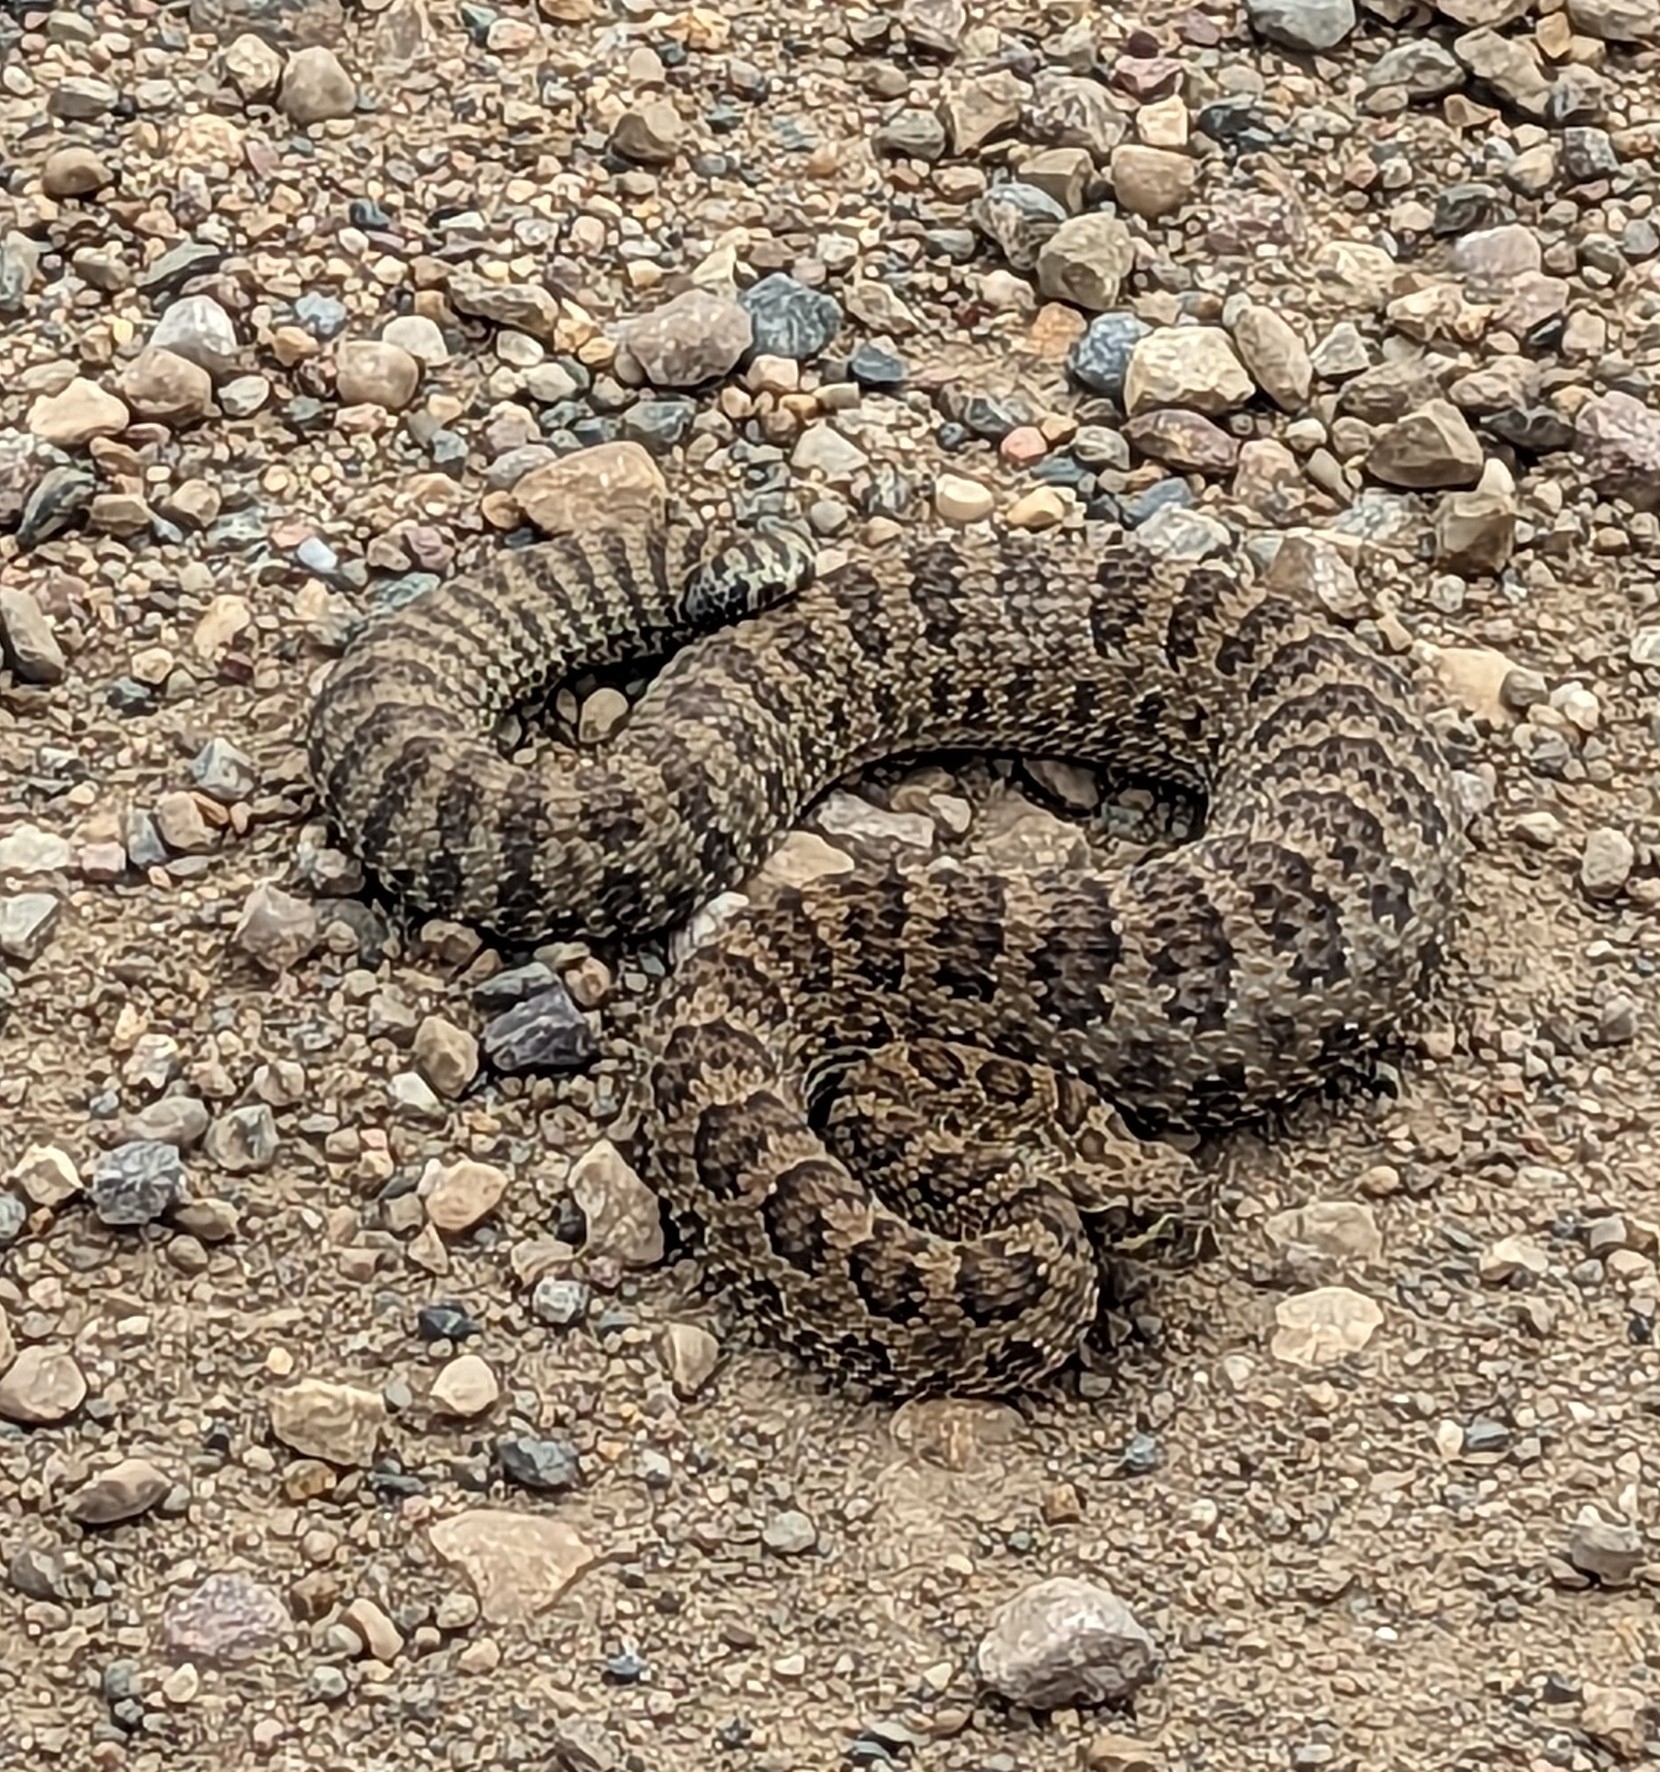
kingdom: Animalia
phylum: Chordata
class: Squamata
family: Viperidae
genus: Crotalus
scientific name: Crotalus viridis
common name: Prairie rattlesnake
